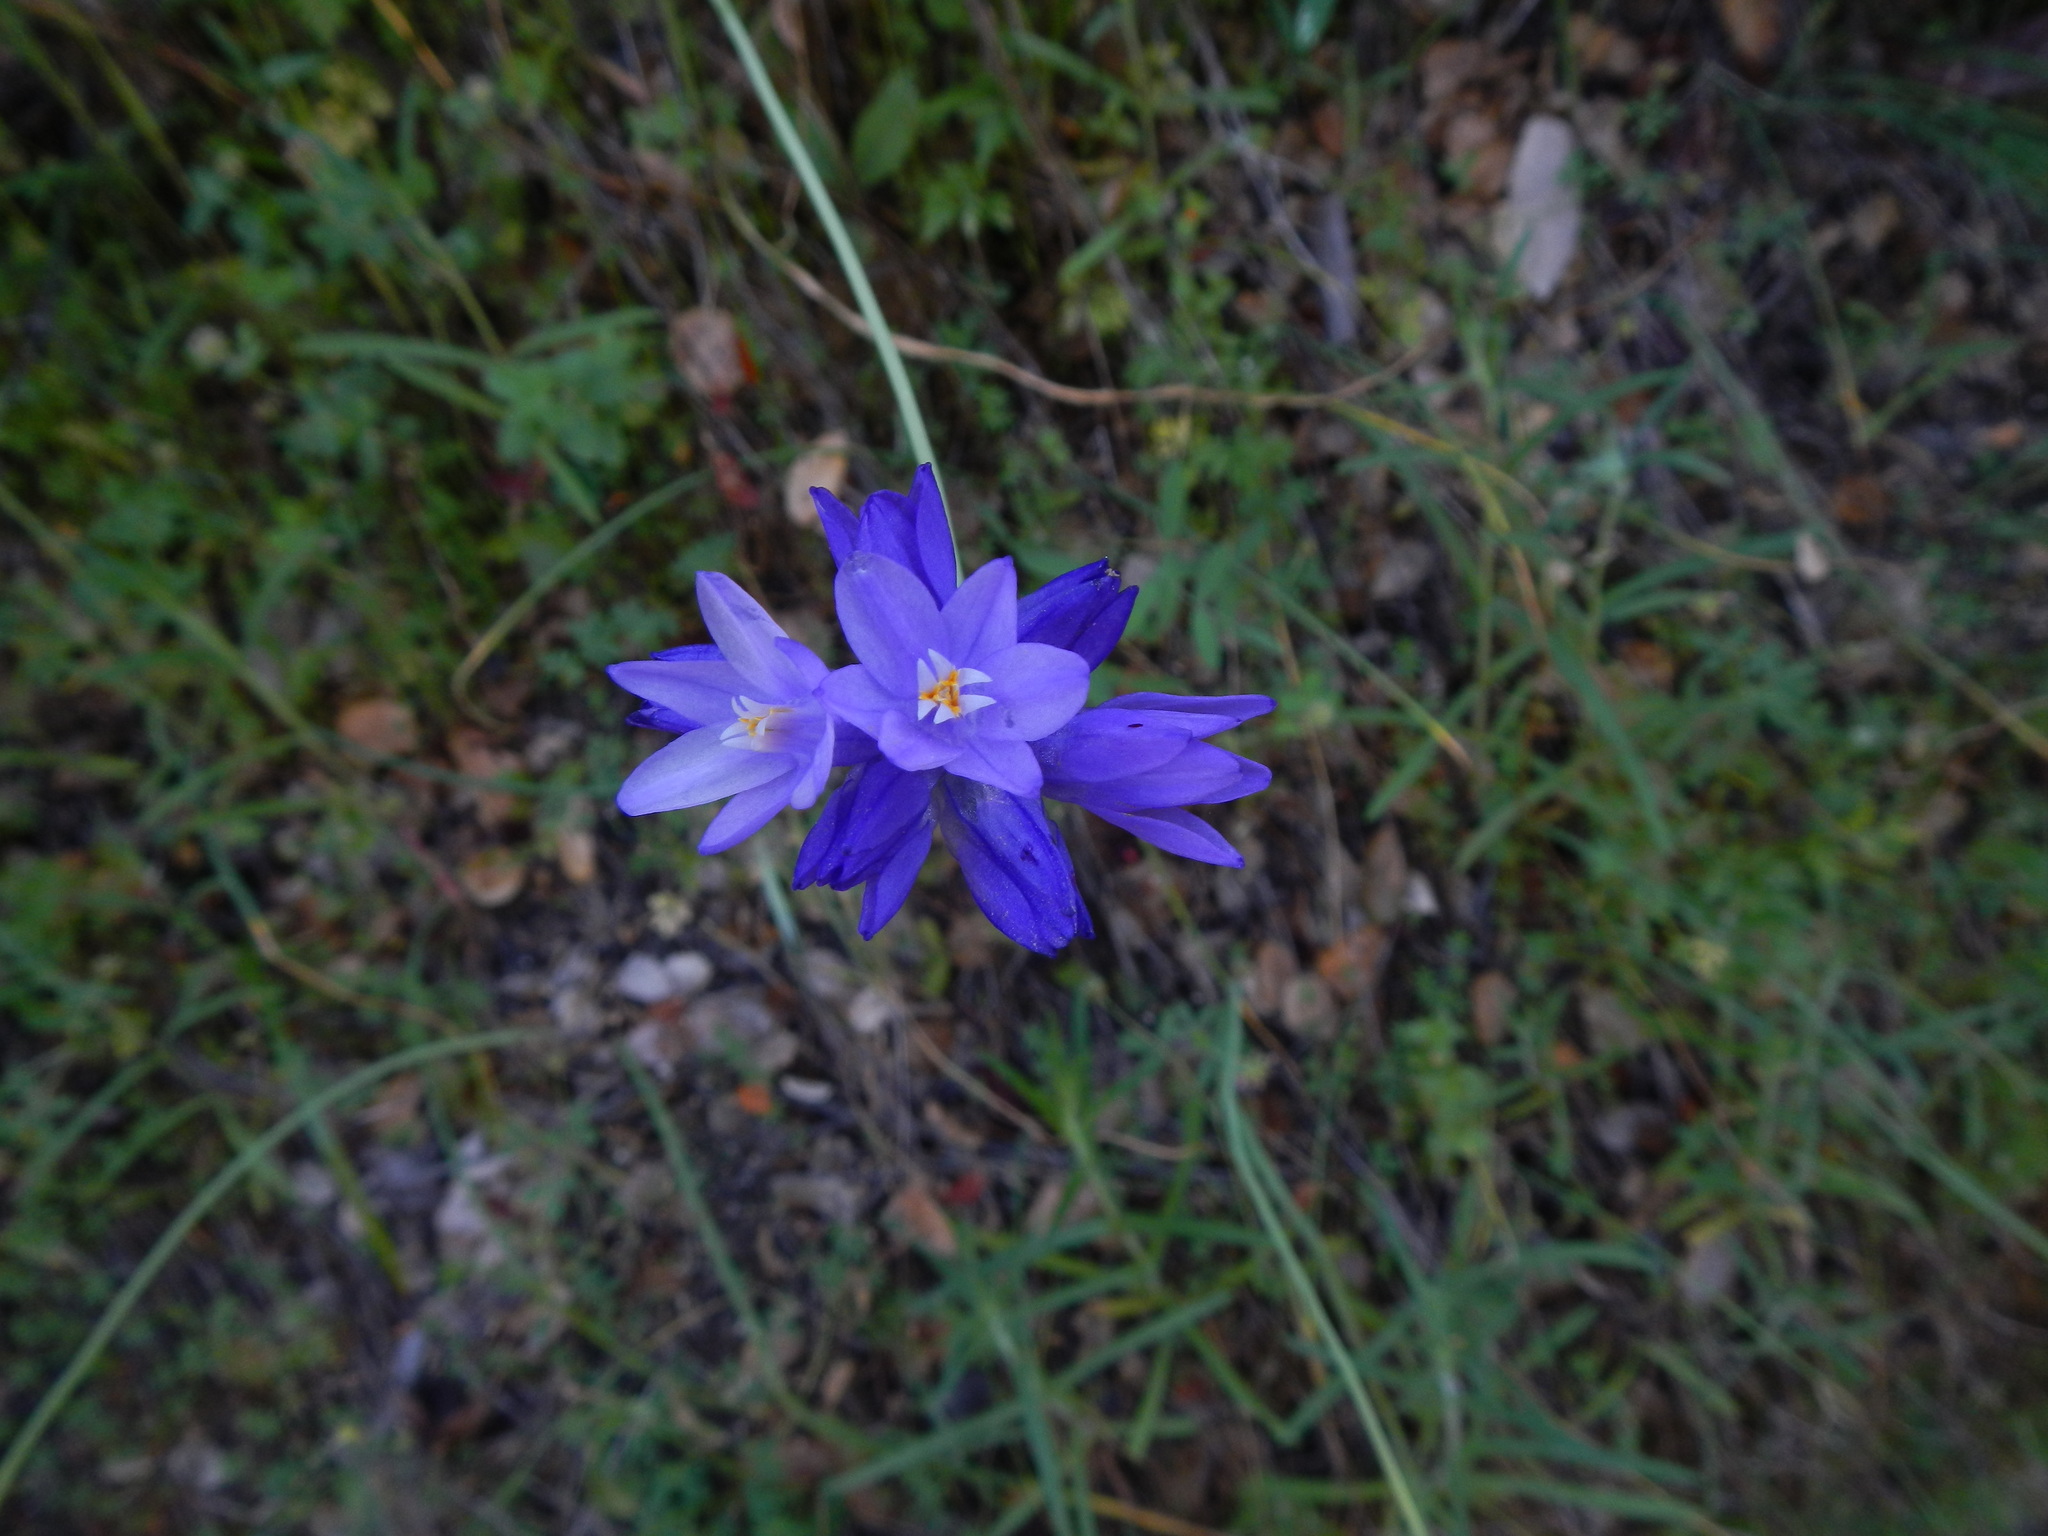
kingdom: Plantae
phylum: Tracheophyta
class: Liliopsida
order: Asparagales
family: Asparagaceae
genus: Dipterostemon
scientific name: Dipterostemon capitatus
